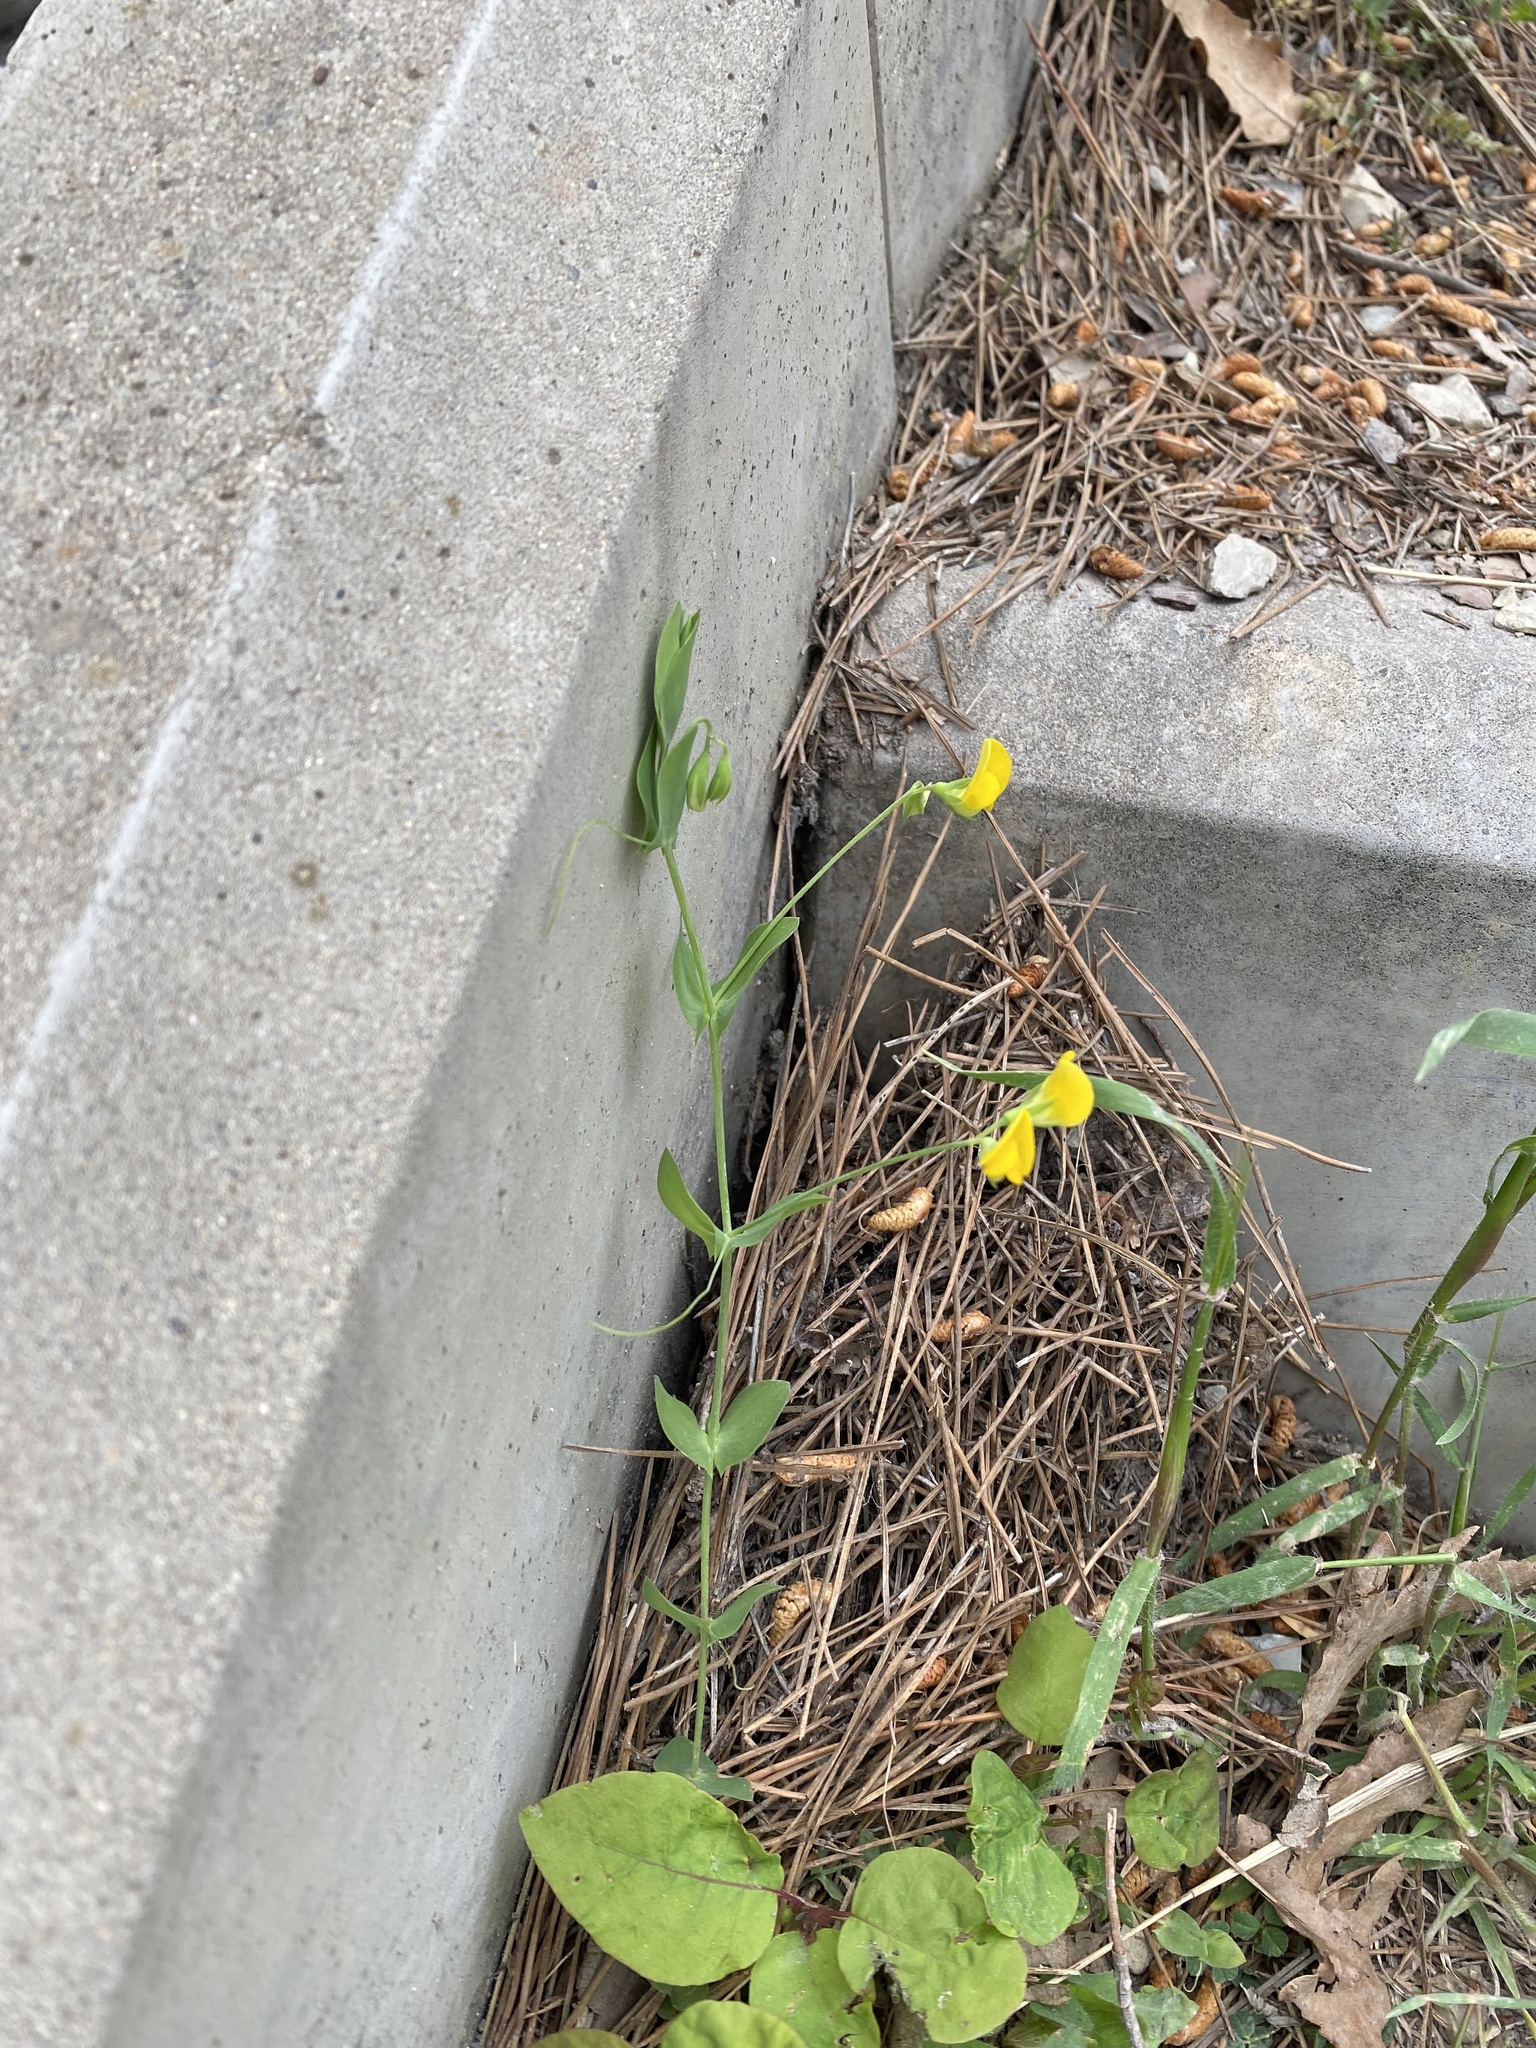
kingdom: Plantae
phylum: Tracheophyta
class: Magnoliopsida
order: Fabales
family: Fabaceae
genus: Lathyrus
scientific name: Lathyrus aphaca
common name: Yellow vetchling
